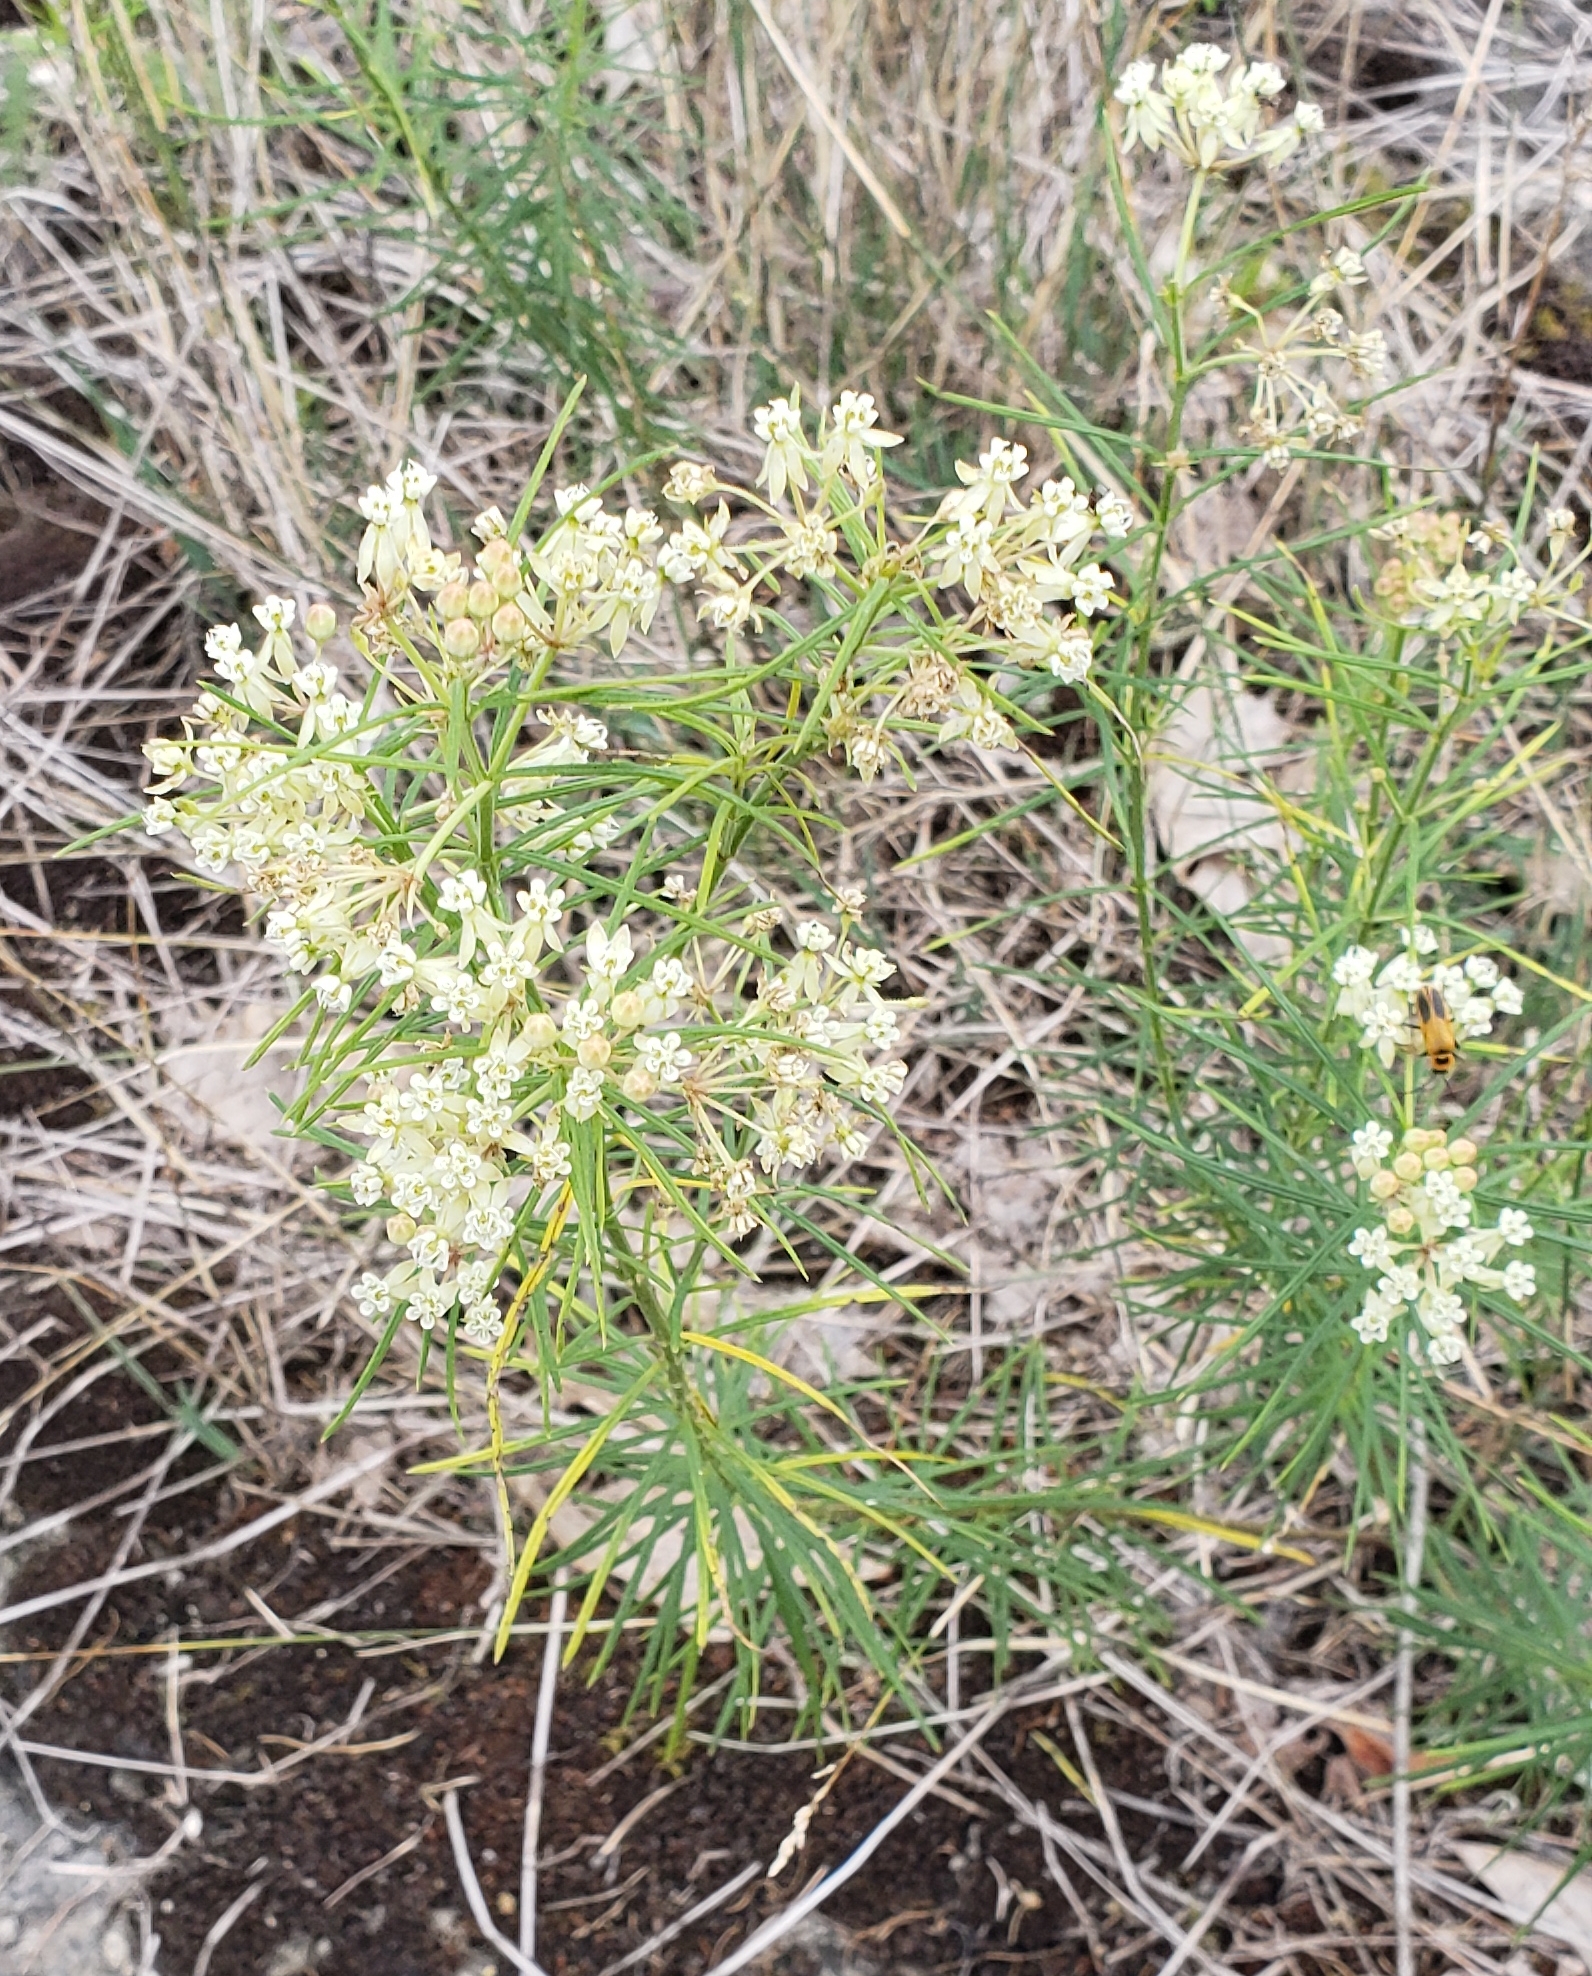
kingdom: Plantae
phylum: Tracheophyta
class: Magnoliopsida
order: Gentianales
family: Apocynaceae
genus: Asclepias
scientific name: Asclepias verticillata
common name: Eastern whorled milkweed
